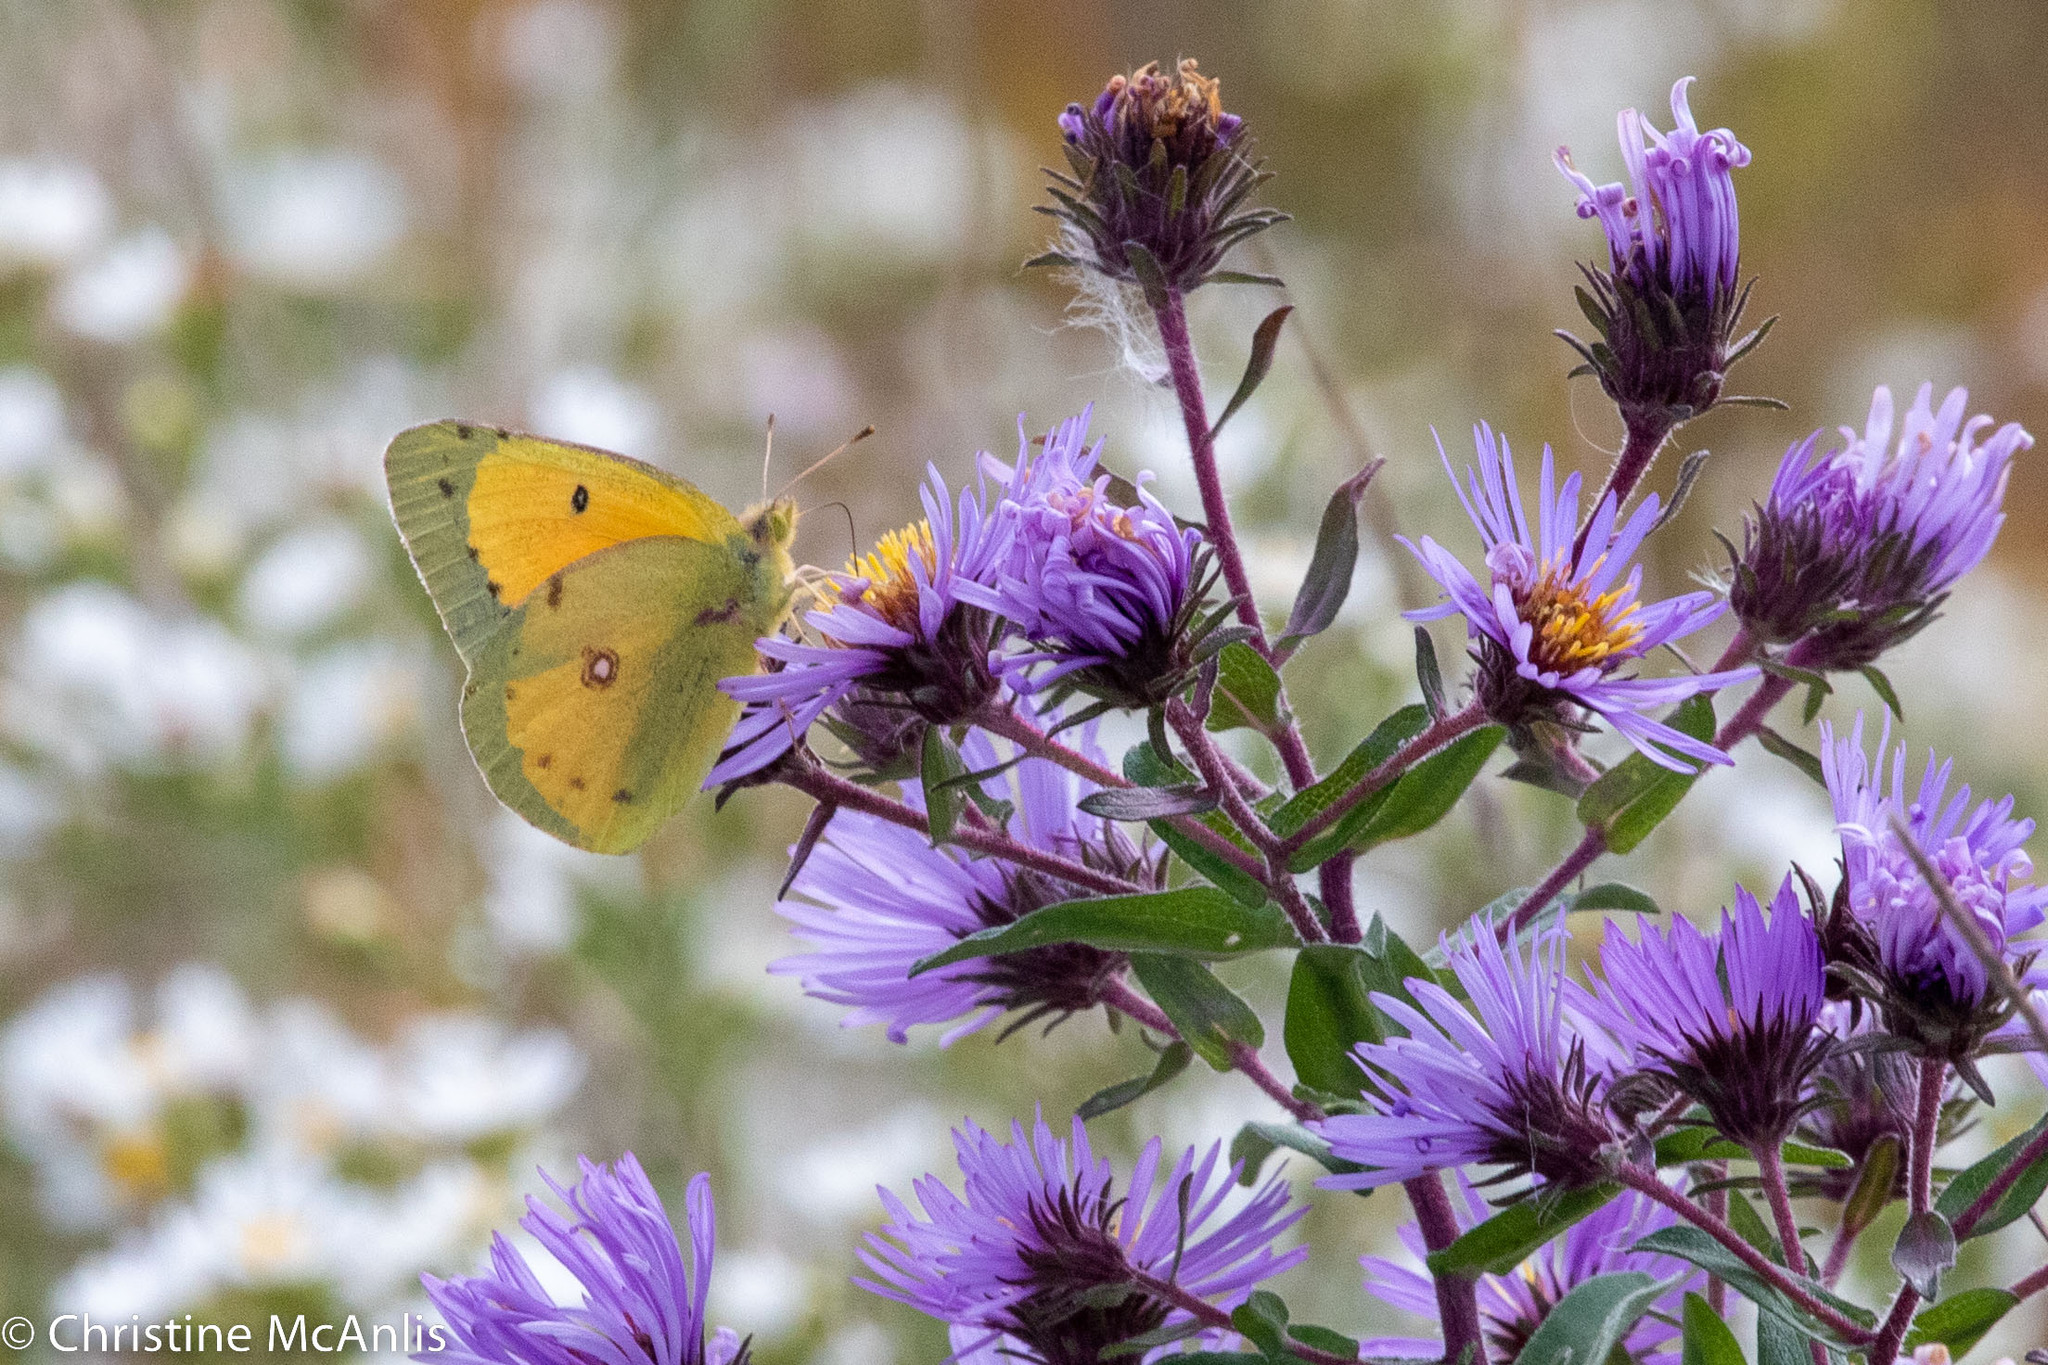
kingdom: Animalia
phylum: Arthropoda
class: Insecta
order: Lepidoptera
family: Pieridae
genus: Colias
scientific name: Colias eurytheme
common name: Alfalfa butterfly
